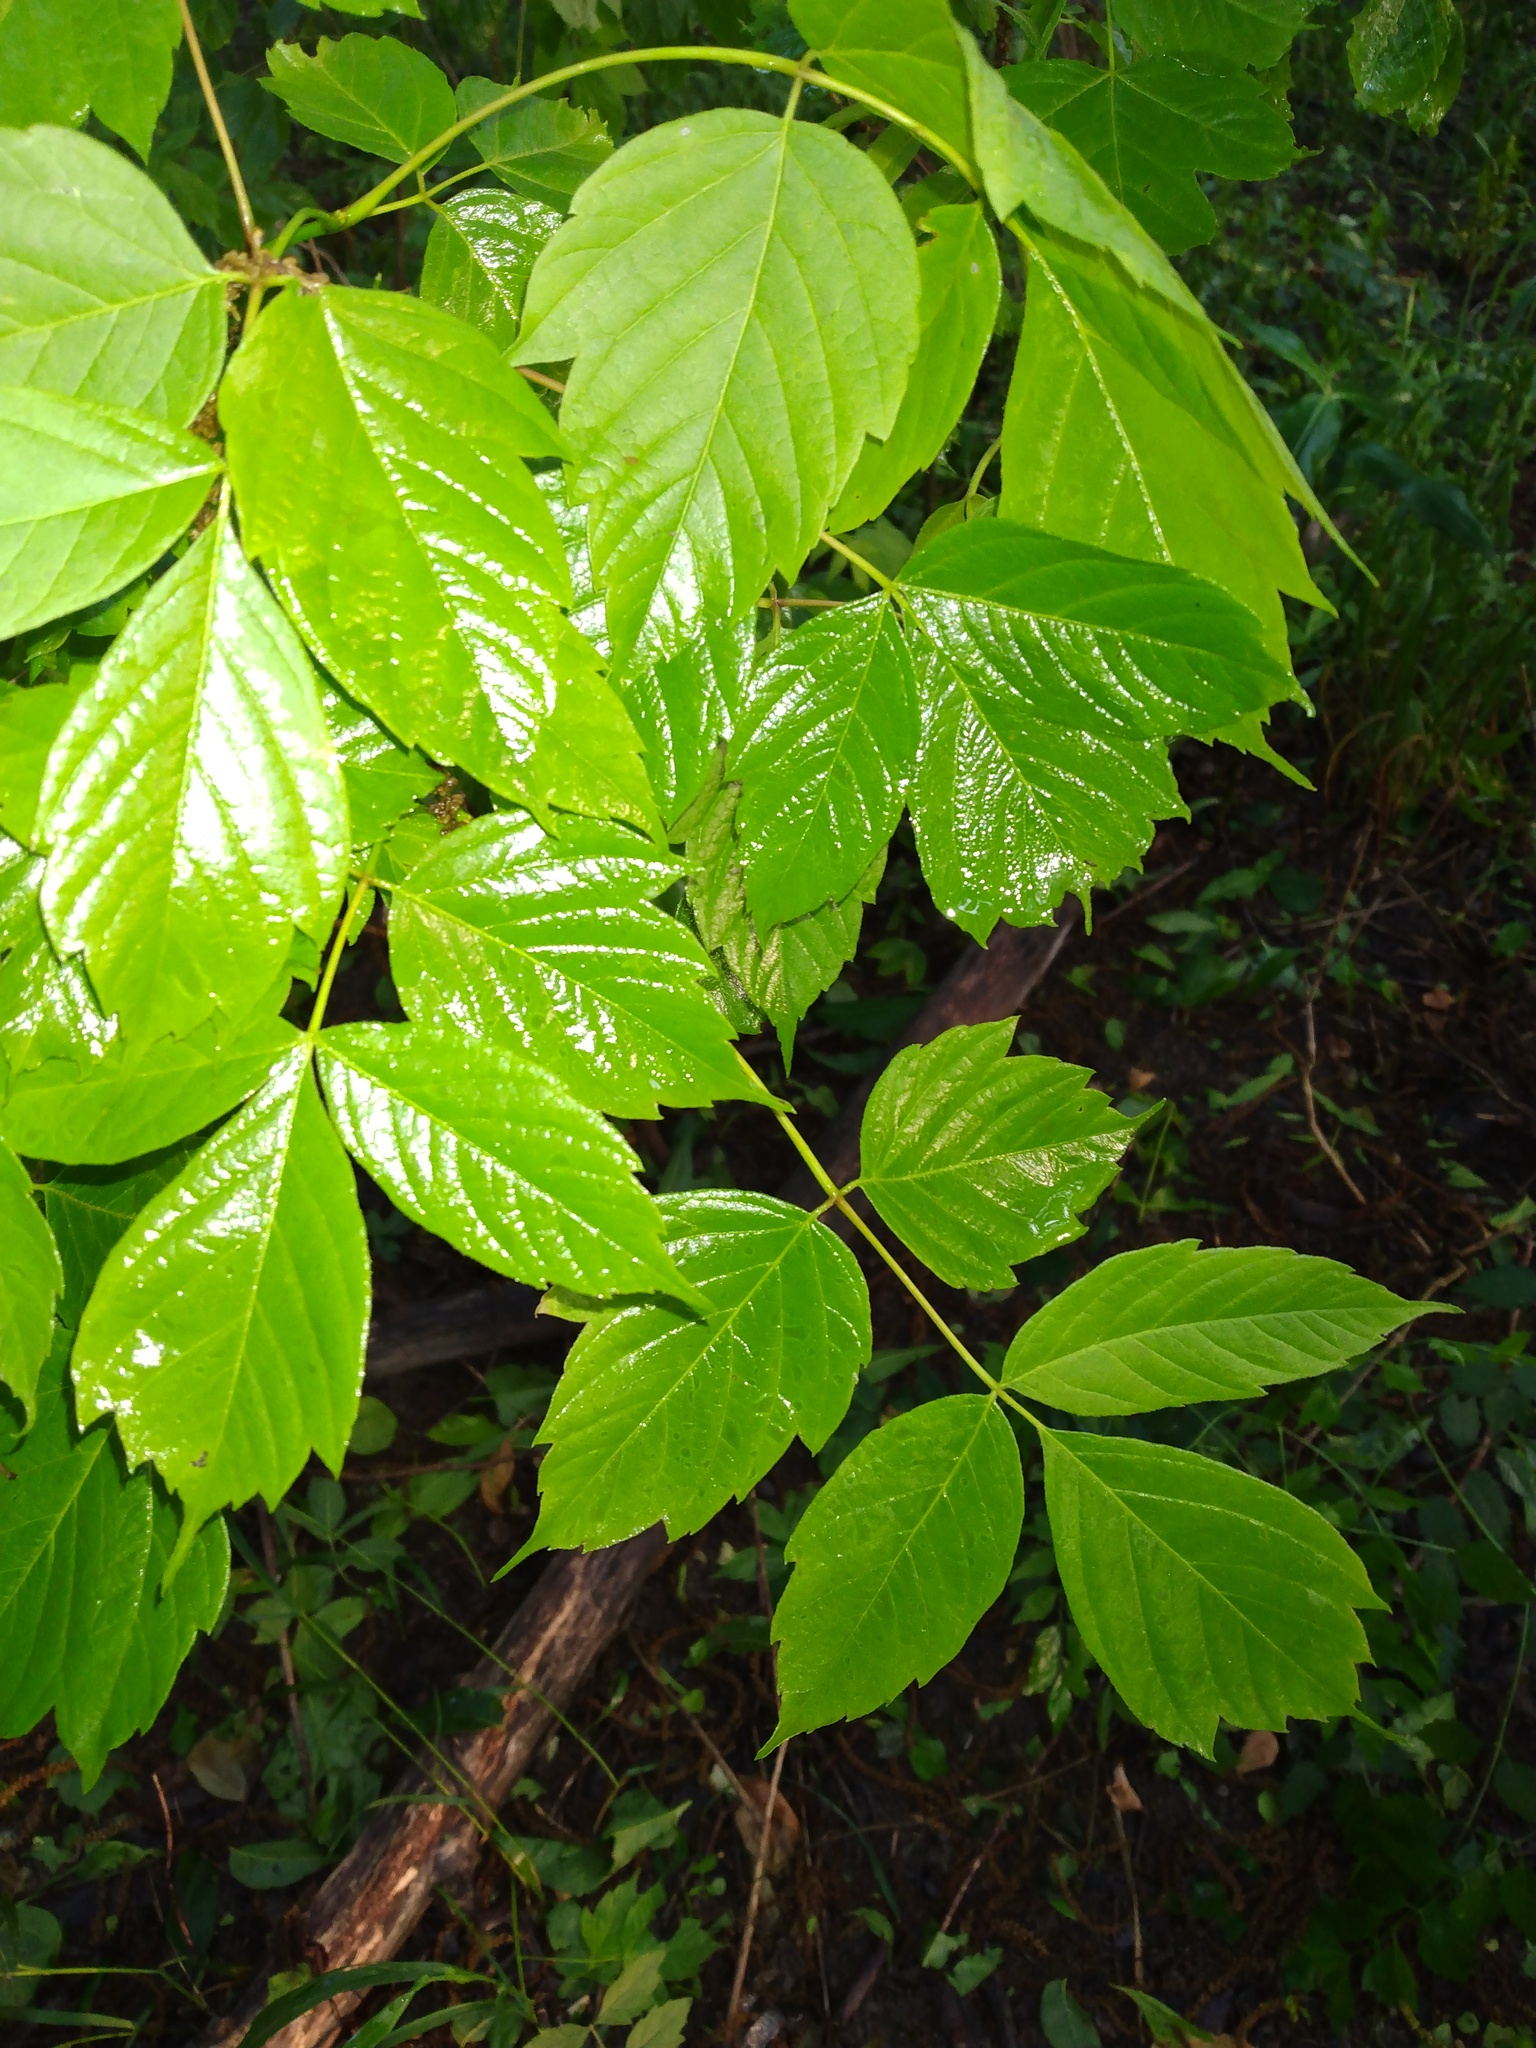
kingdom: Plantae
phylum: Tracheophyta
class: Magnoliopsida
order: Sapindales
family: Sapindaceae
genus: Acer
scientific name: Acer negundo
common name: Ashleaf maple
